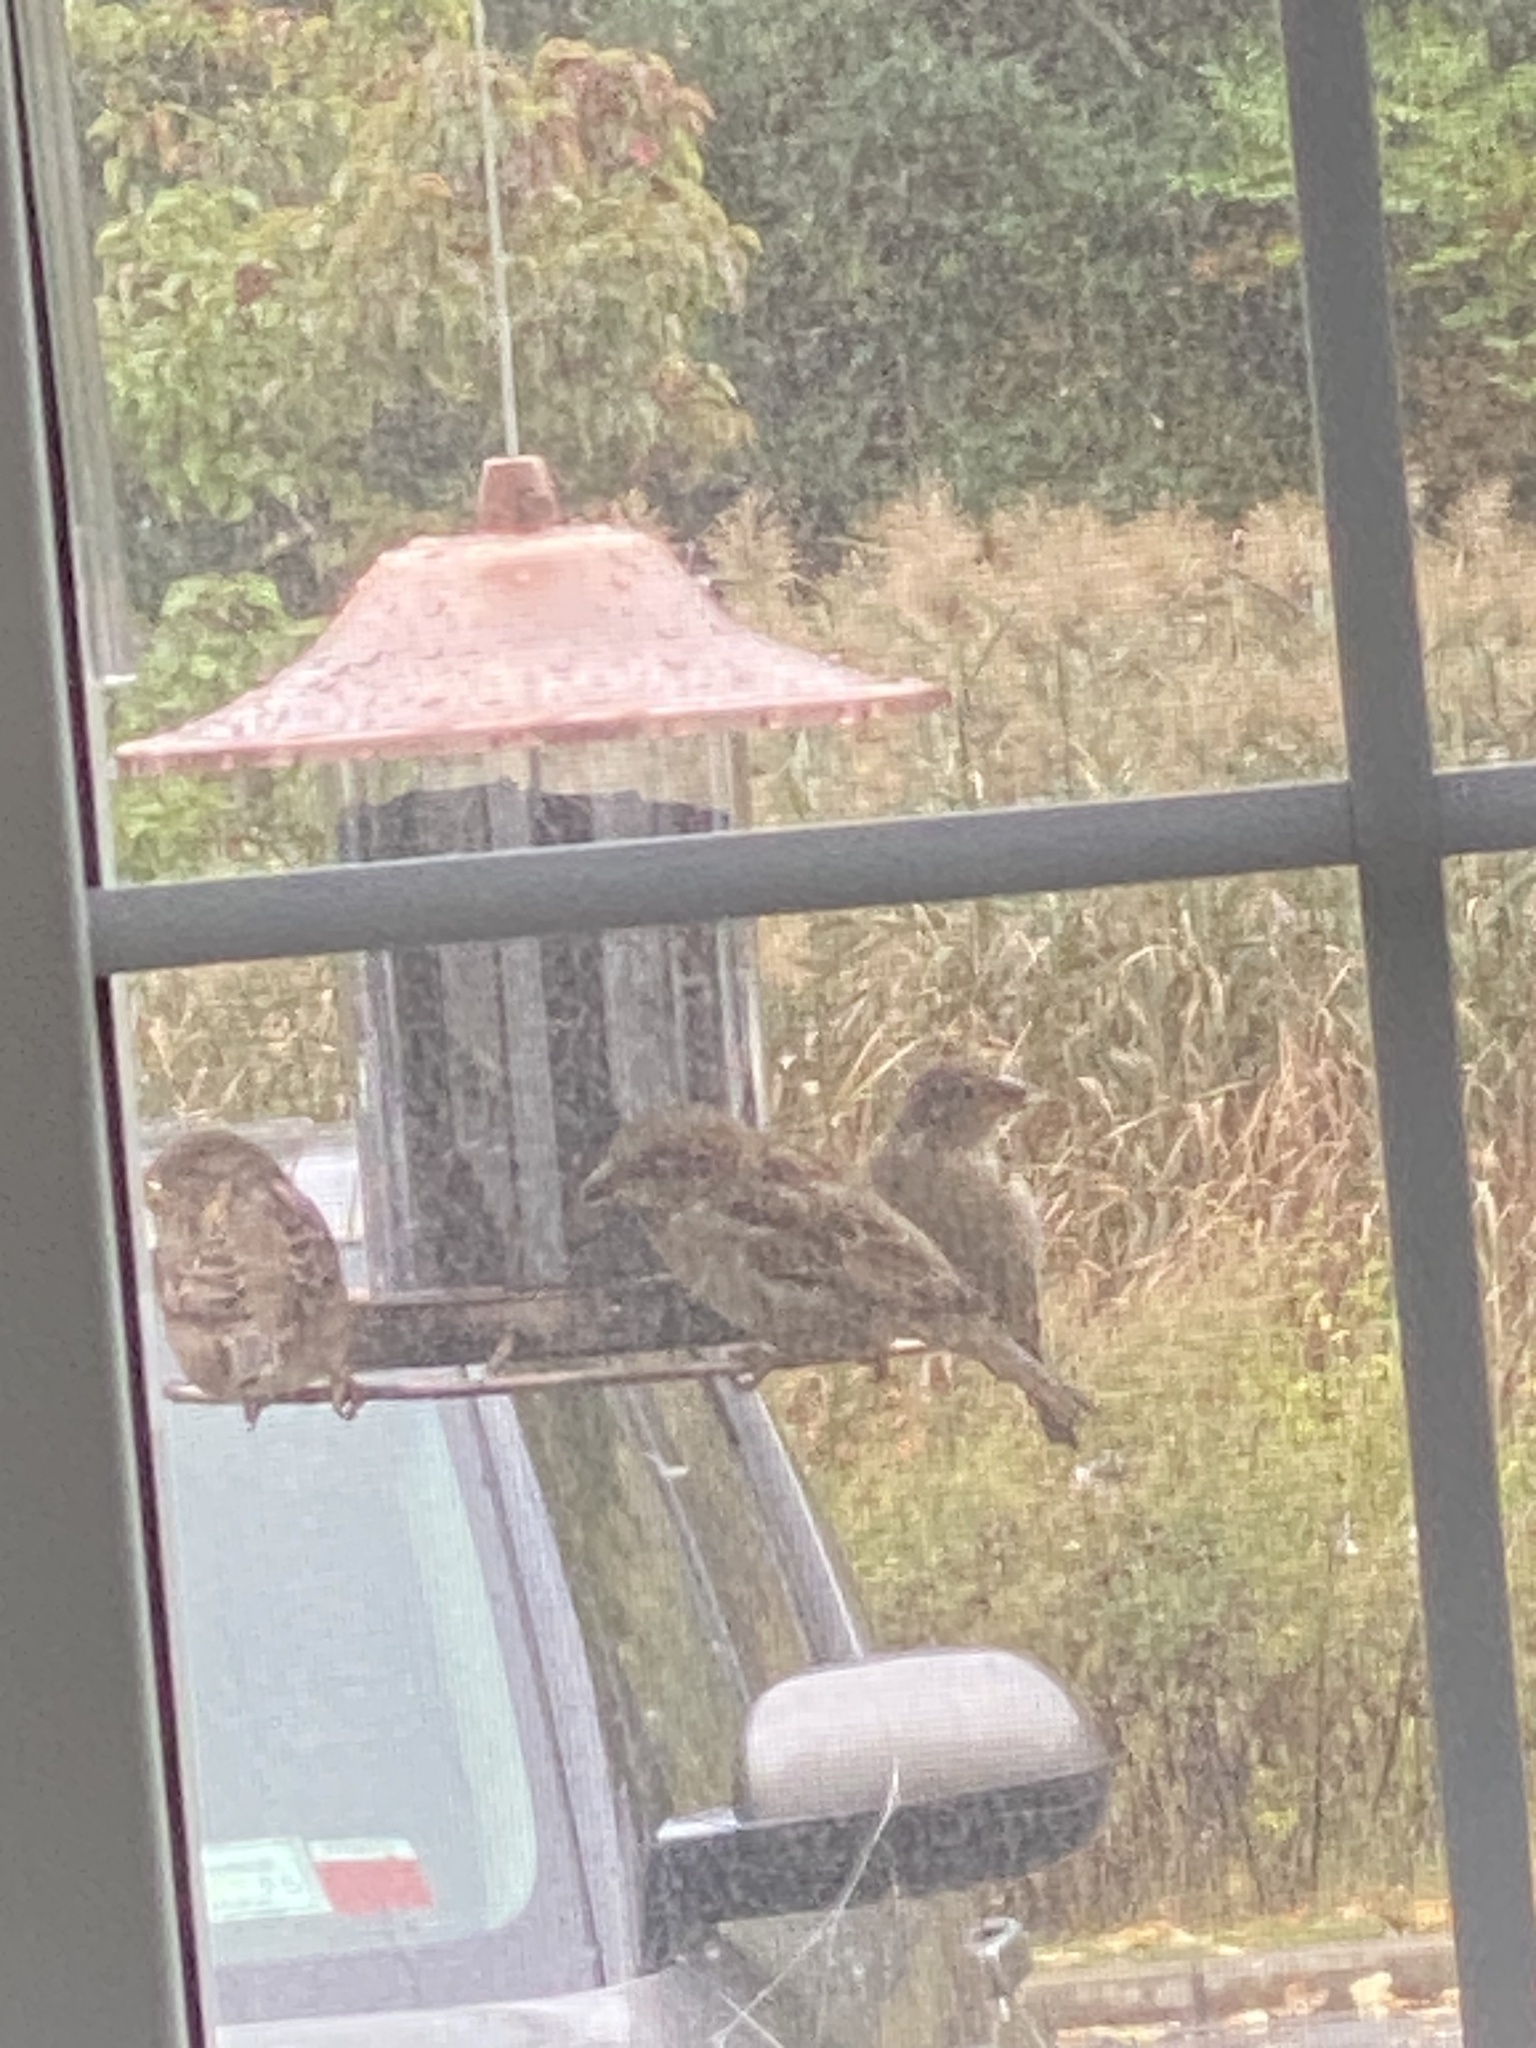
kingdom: Animalia
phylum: Chordata
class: Aves
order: Passeriformes
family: Passeridae
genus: Passer
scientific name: Passer domesticus
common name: House sparrow
